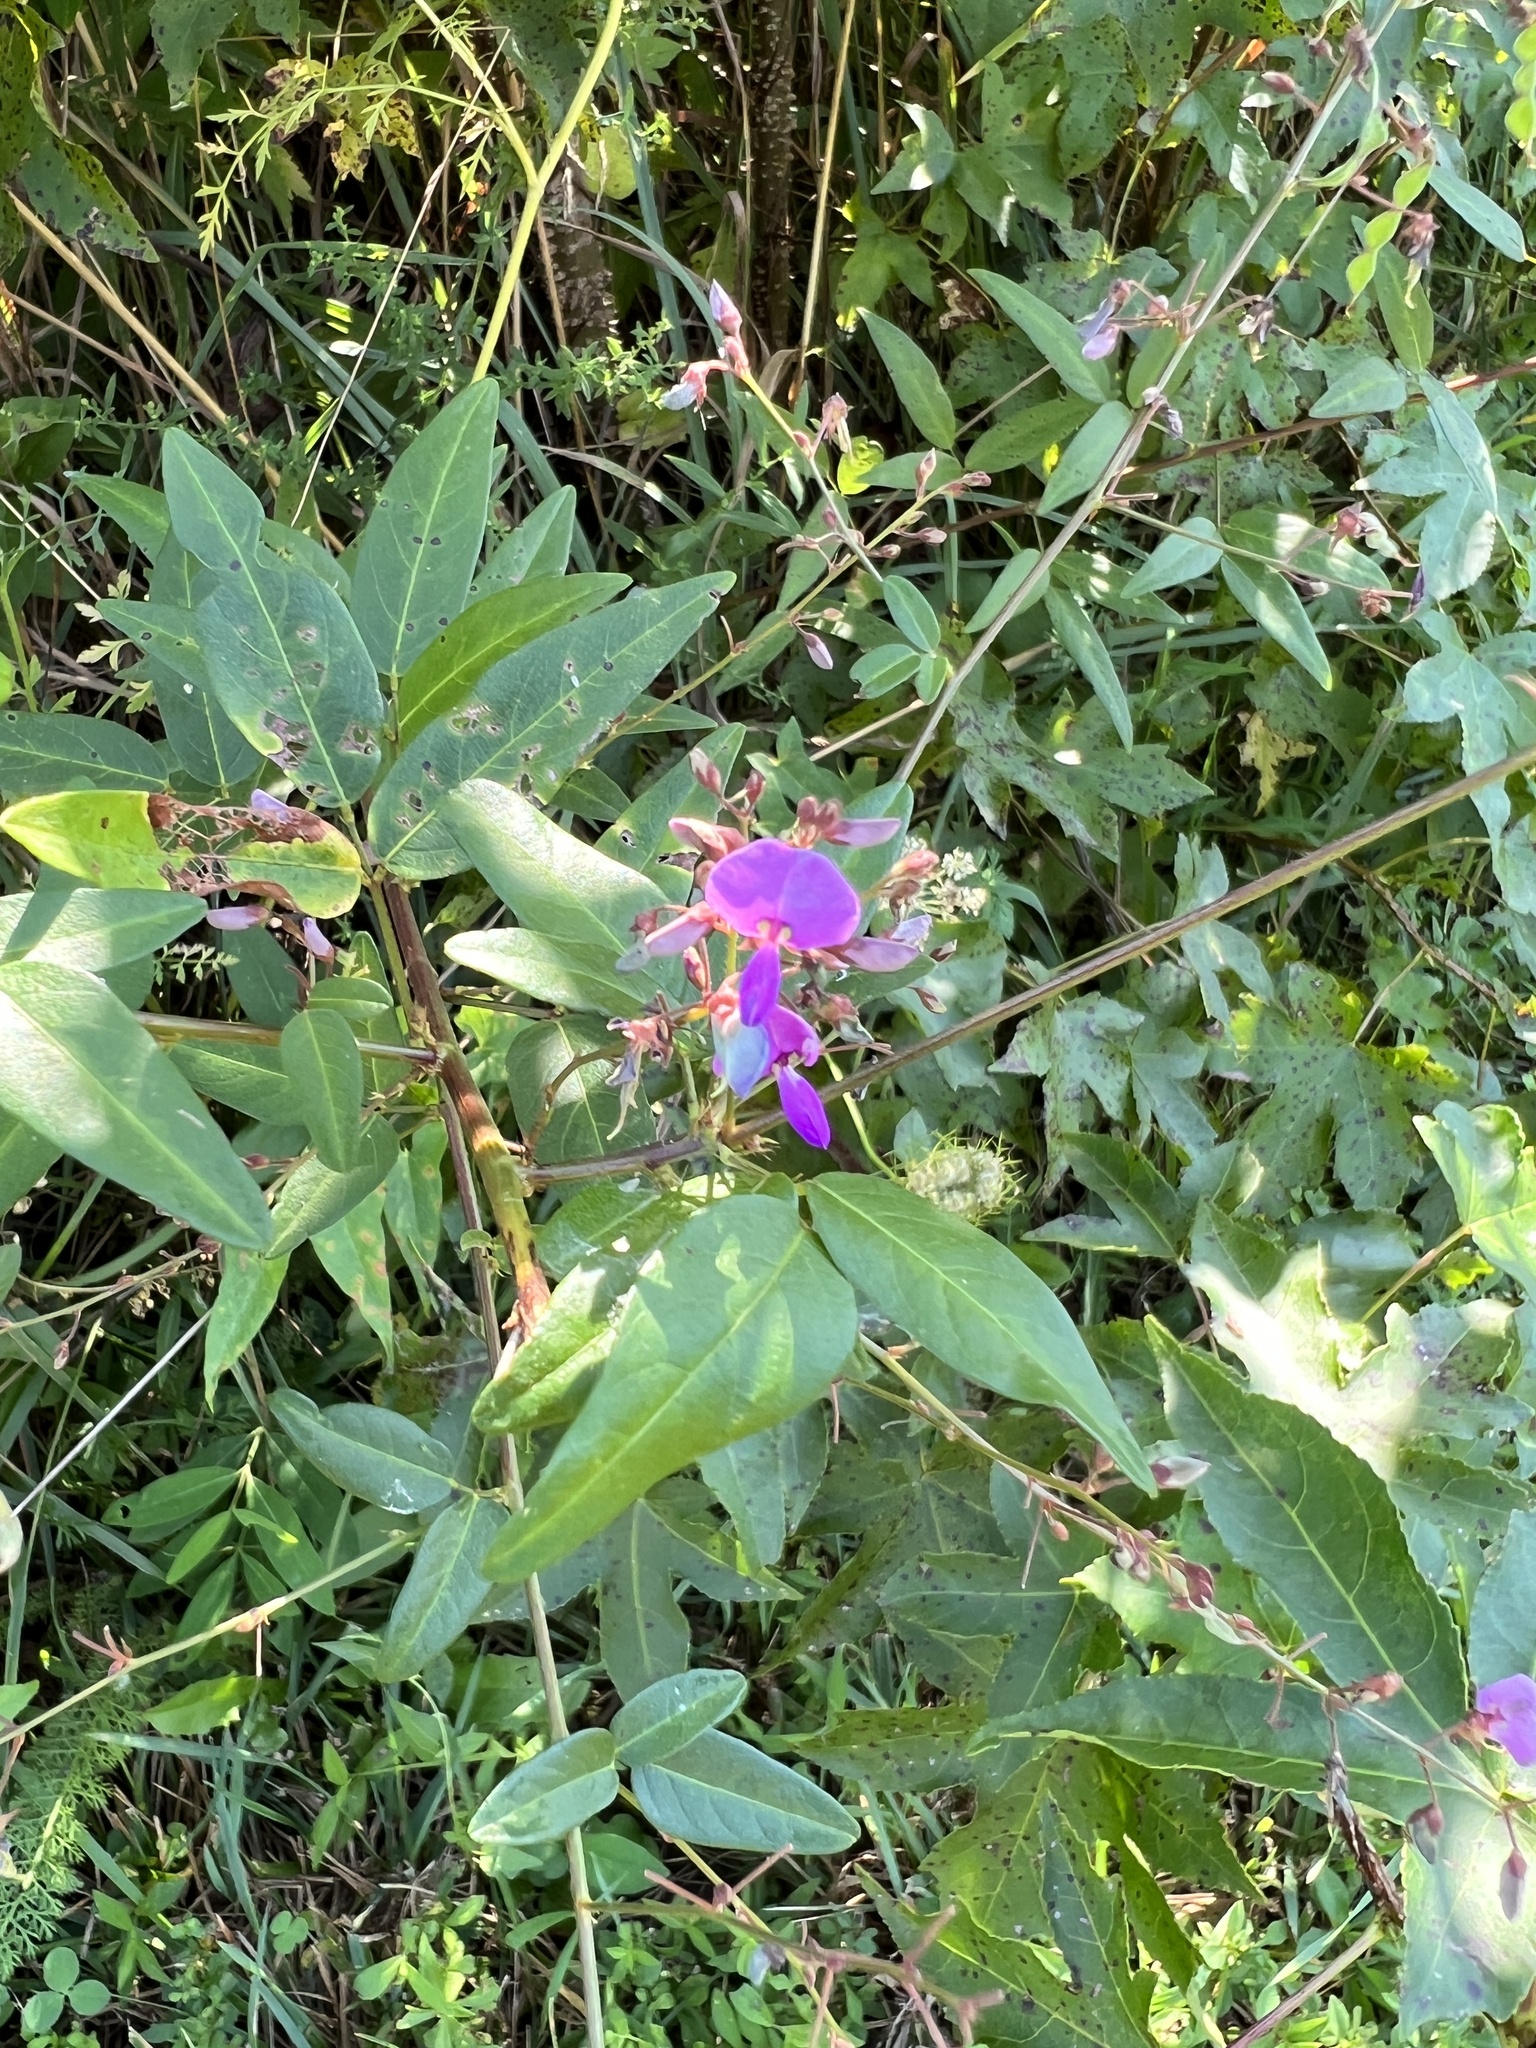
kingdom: Plantae
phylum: Tracheophyta
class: Magnoliopsida
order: Fabales
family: Fabaceae
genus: Desmodium
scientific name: Desmodium paniculatum
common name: Panicled tick-clover
